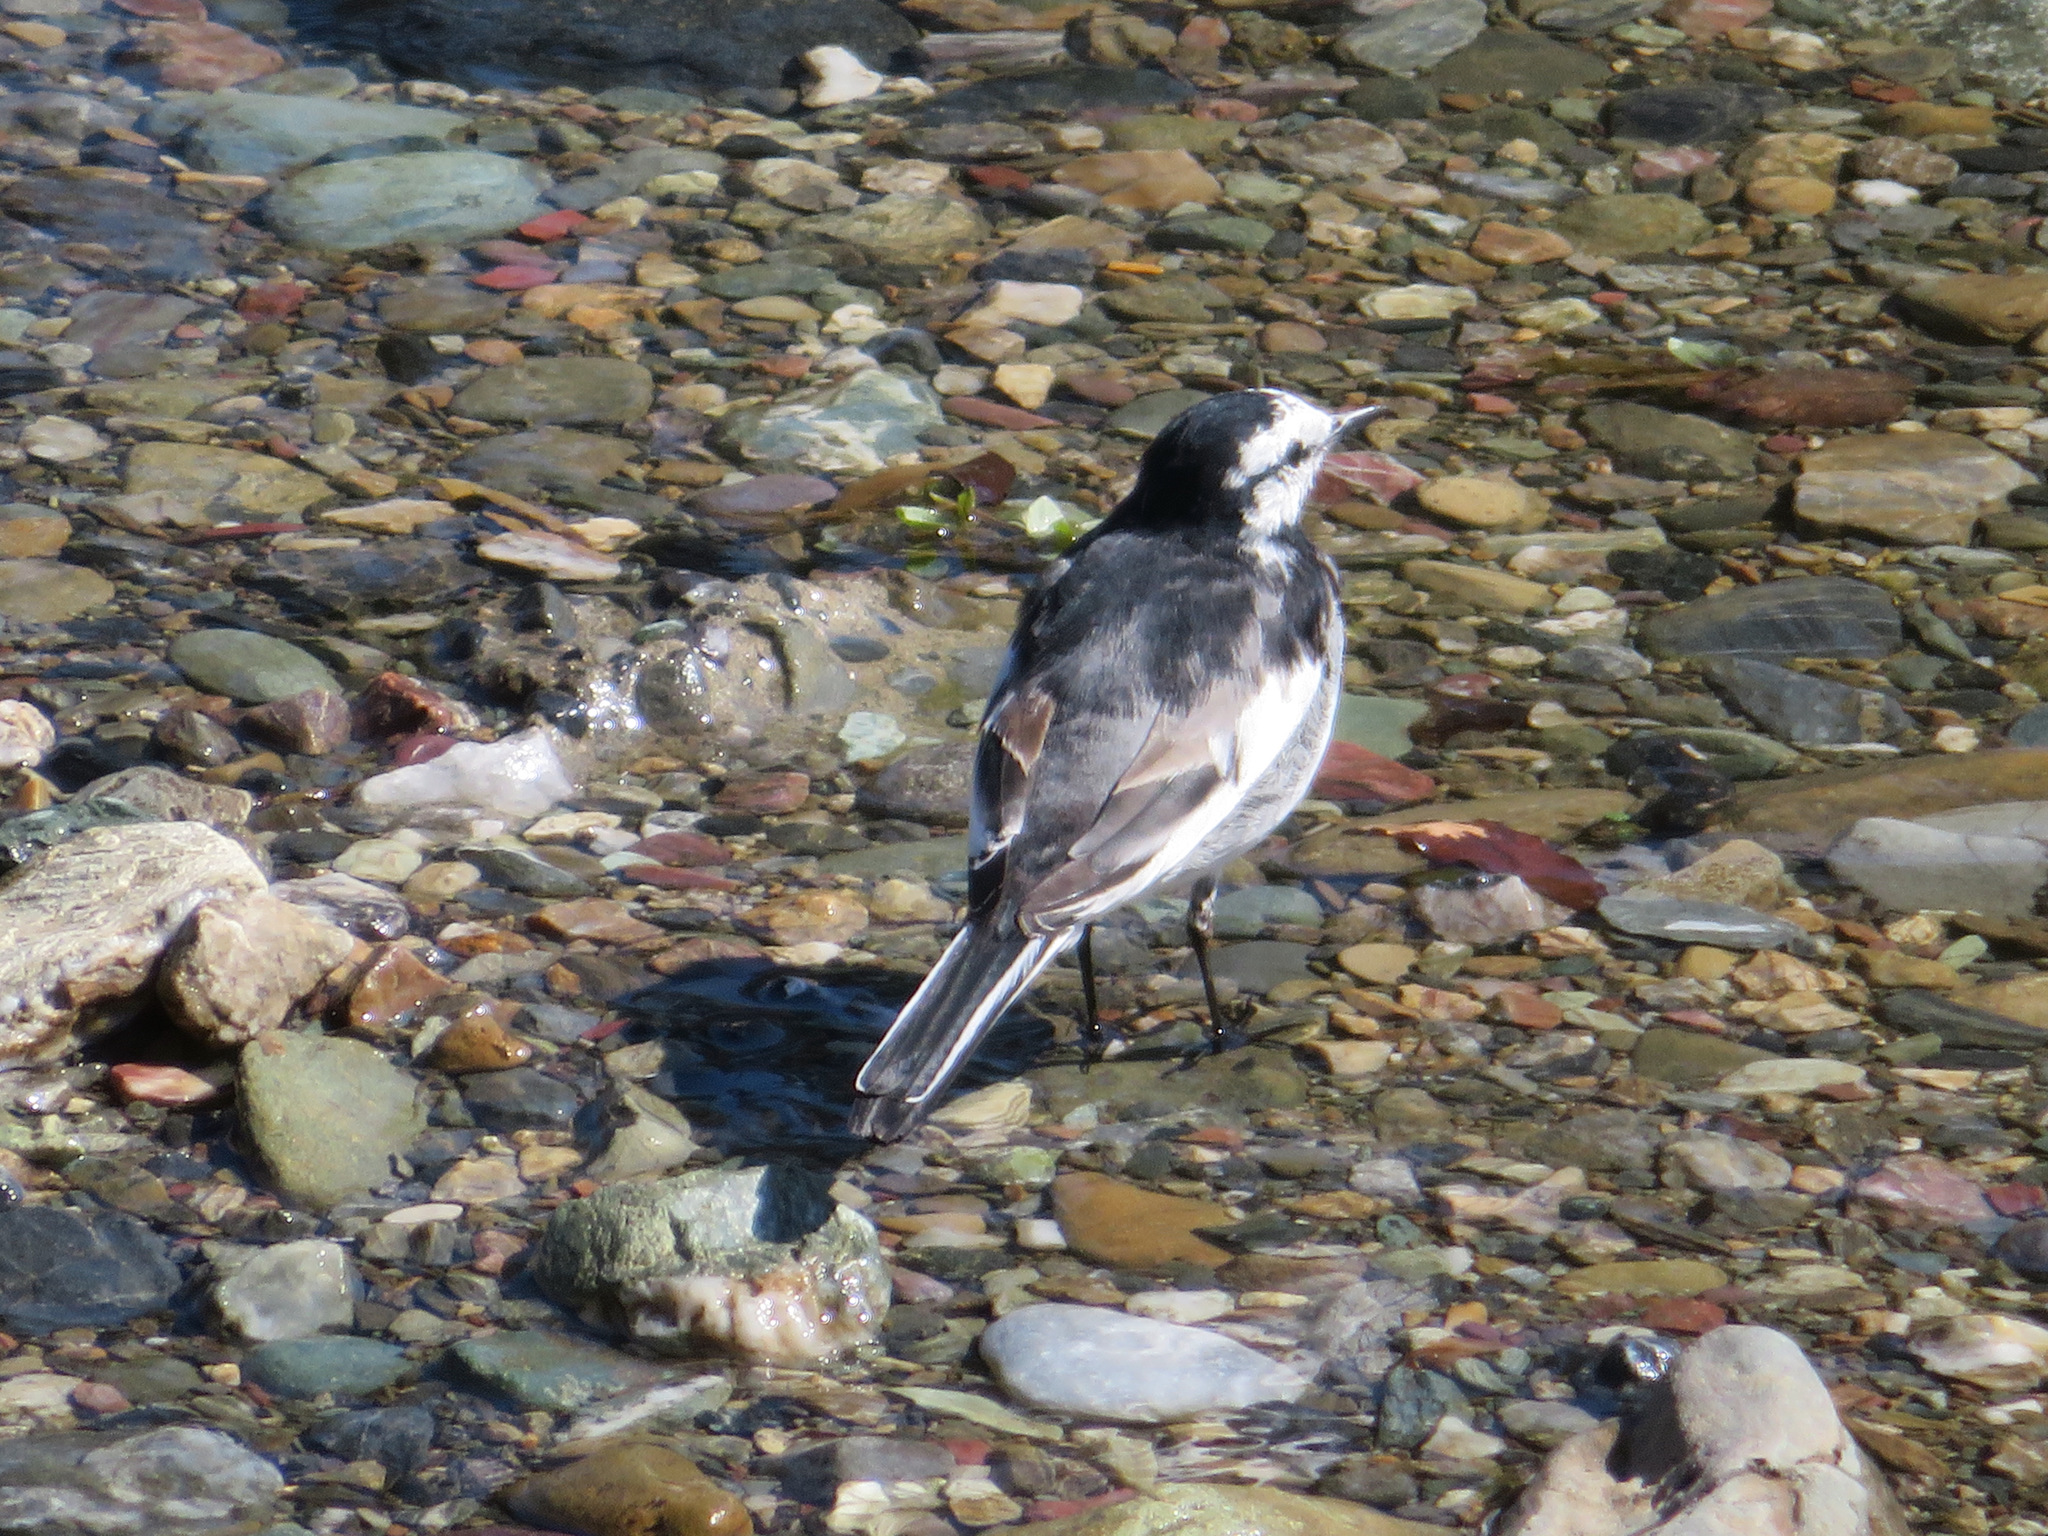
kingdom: Animalia
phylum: Chordata
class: Aves
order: Passeriformes
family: Motacillidae
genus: Motacilla
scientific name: Motacilla alba
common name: White wagtail
